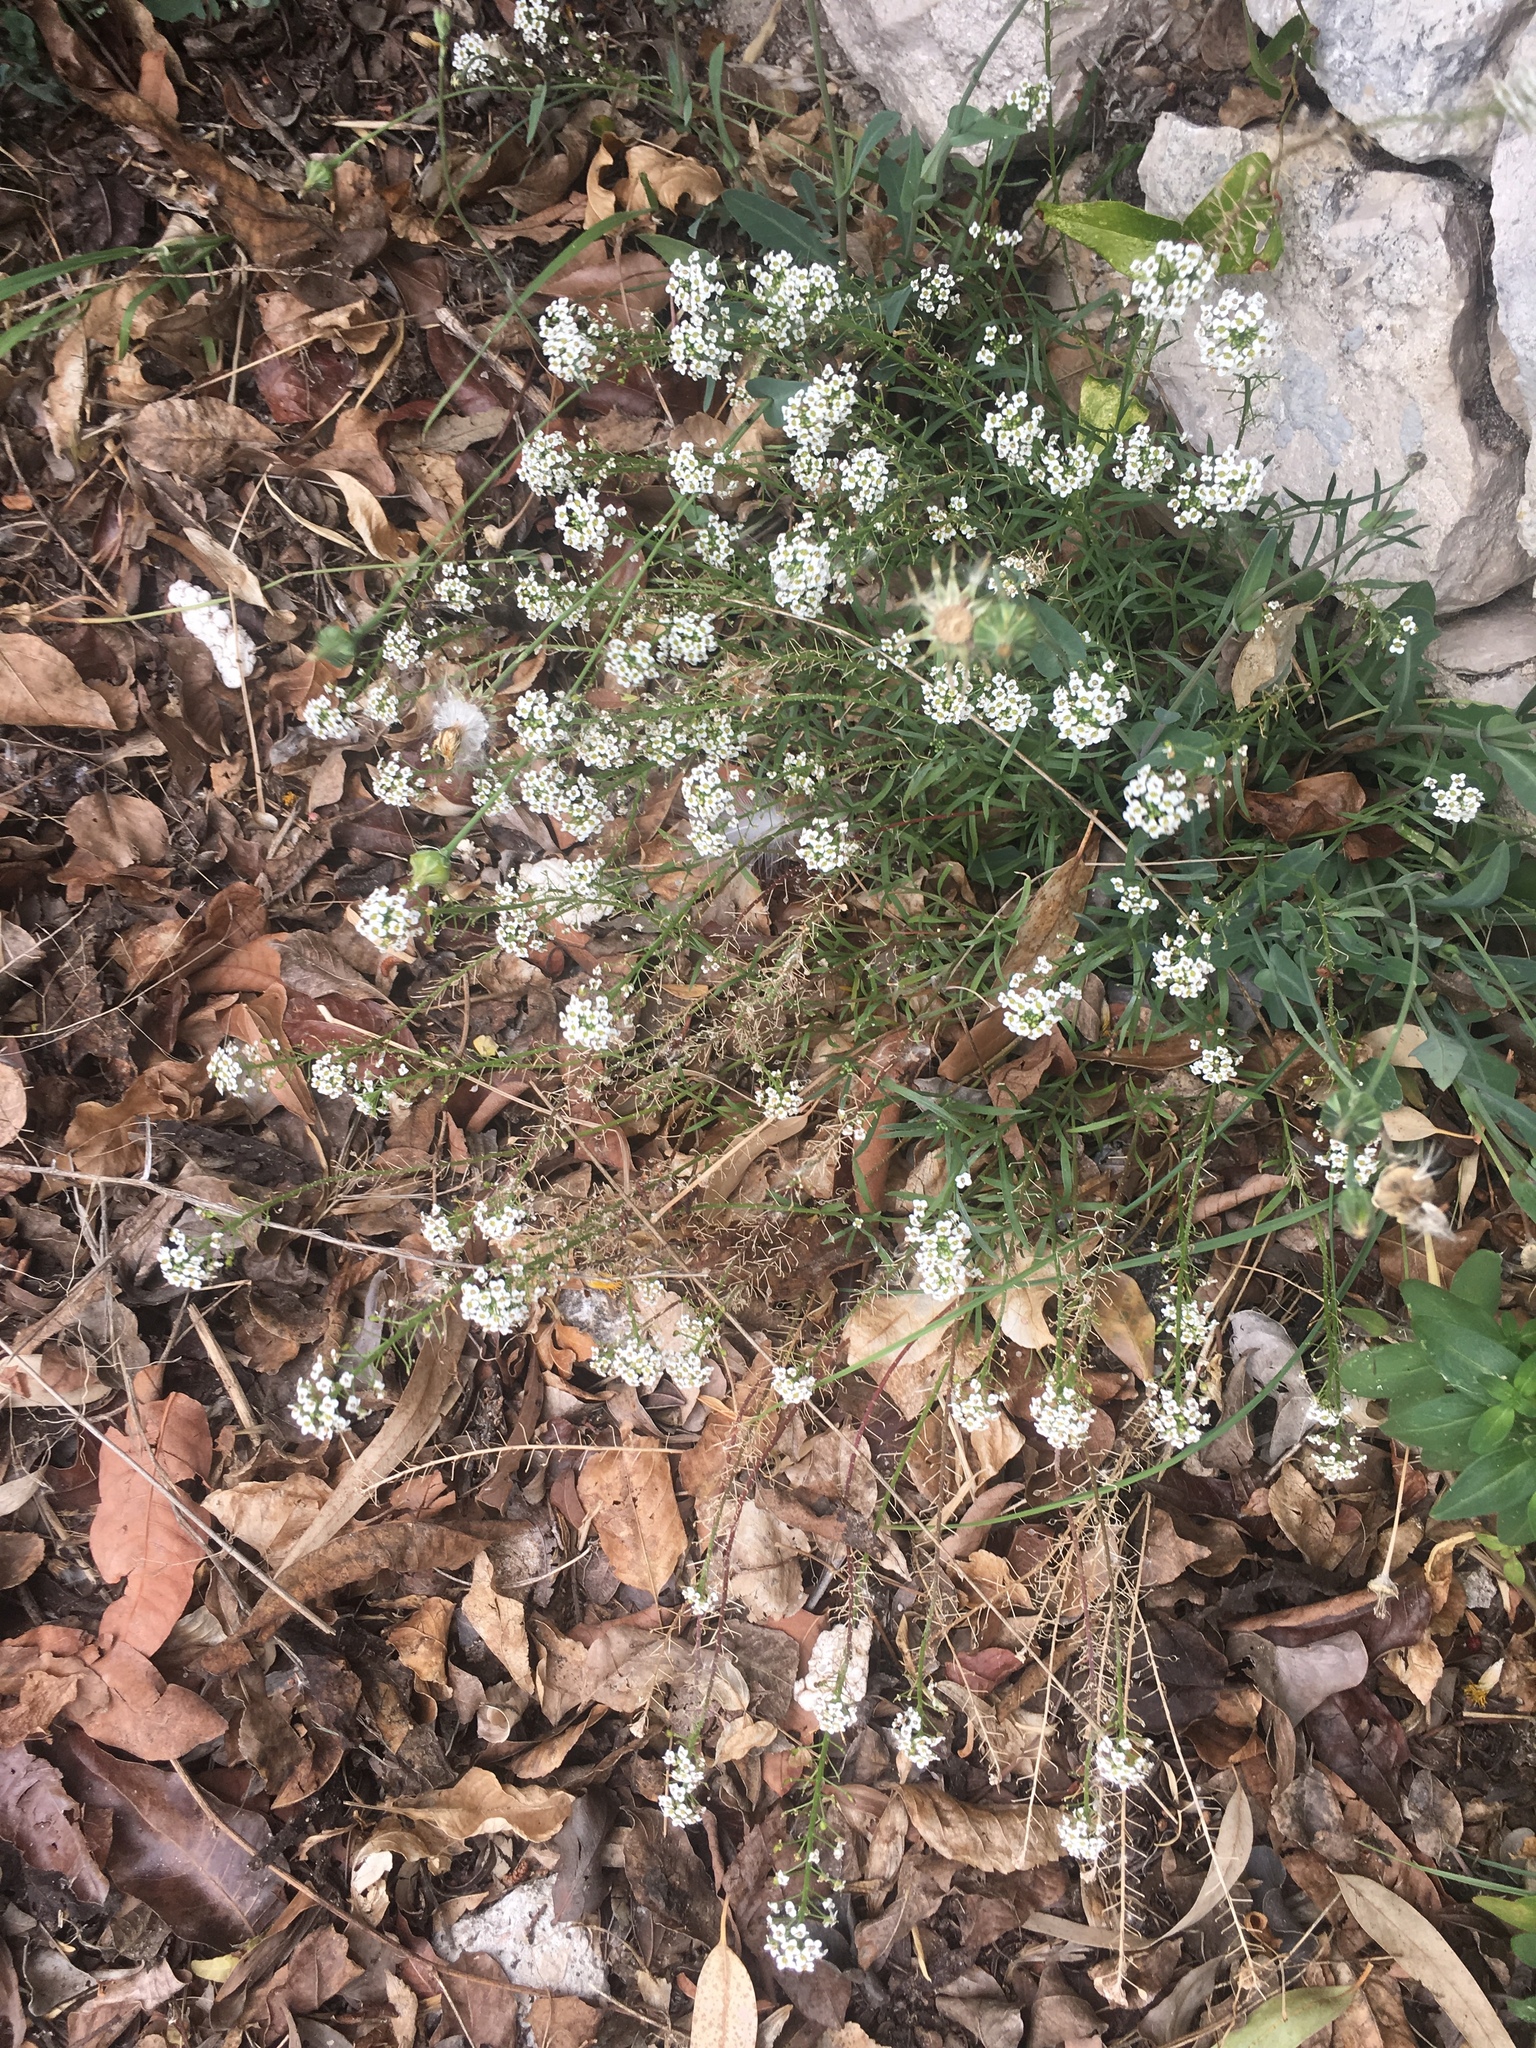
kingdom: Plantae
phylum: Tracheophyta
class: Magnoliopsida
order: Brassicales
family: Brassicaceae
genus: Lobularia
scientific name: Lobularia maritima
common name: Sweet alison
